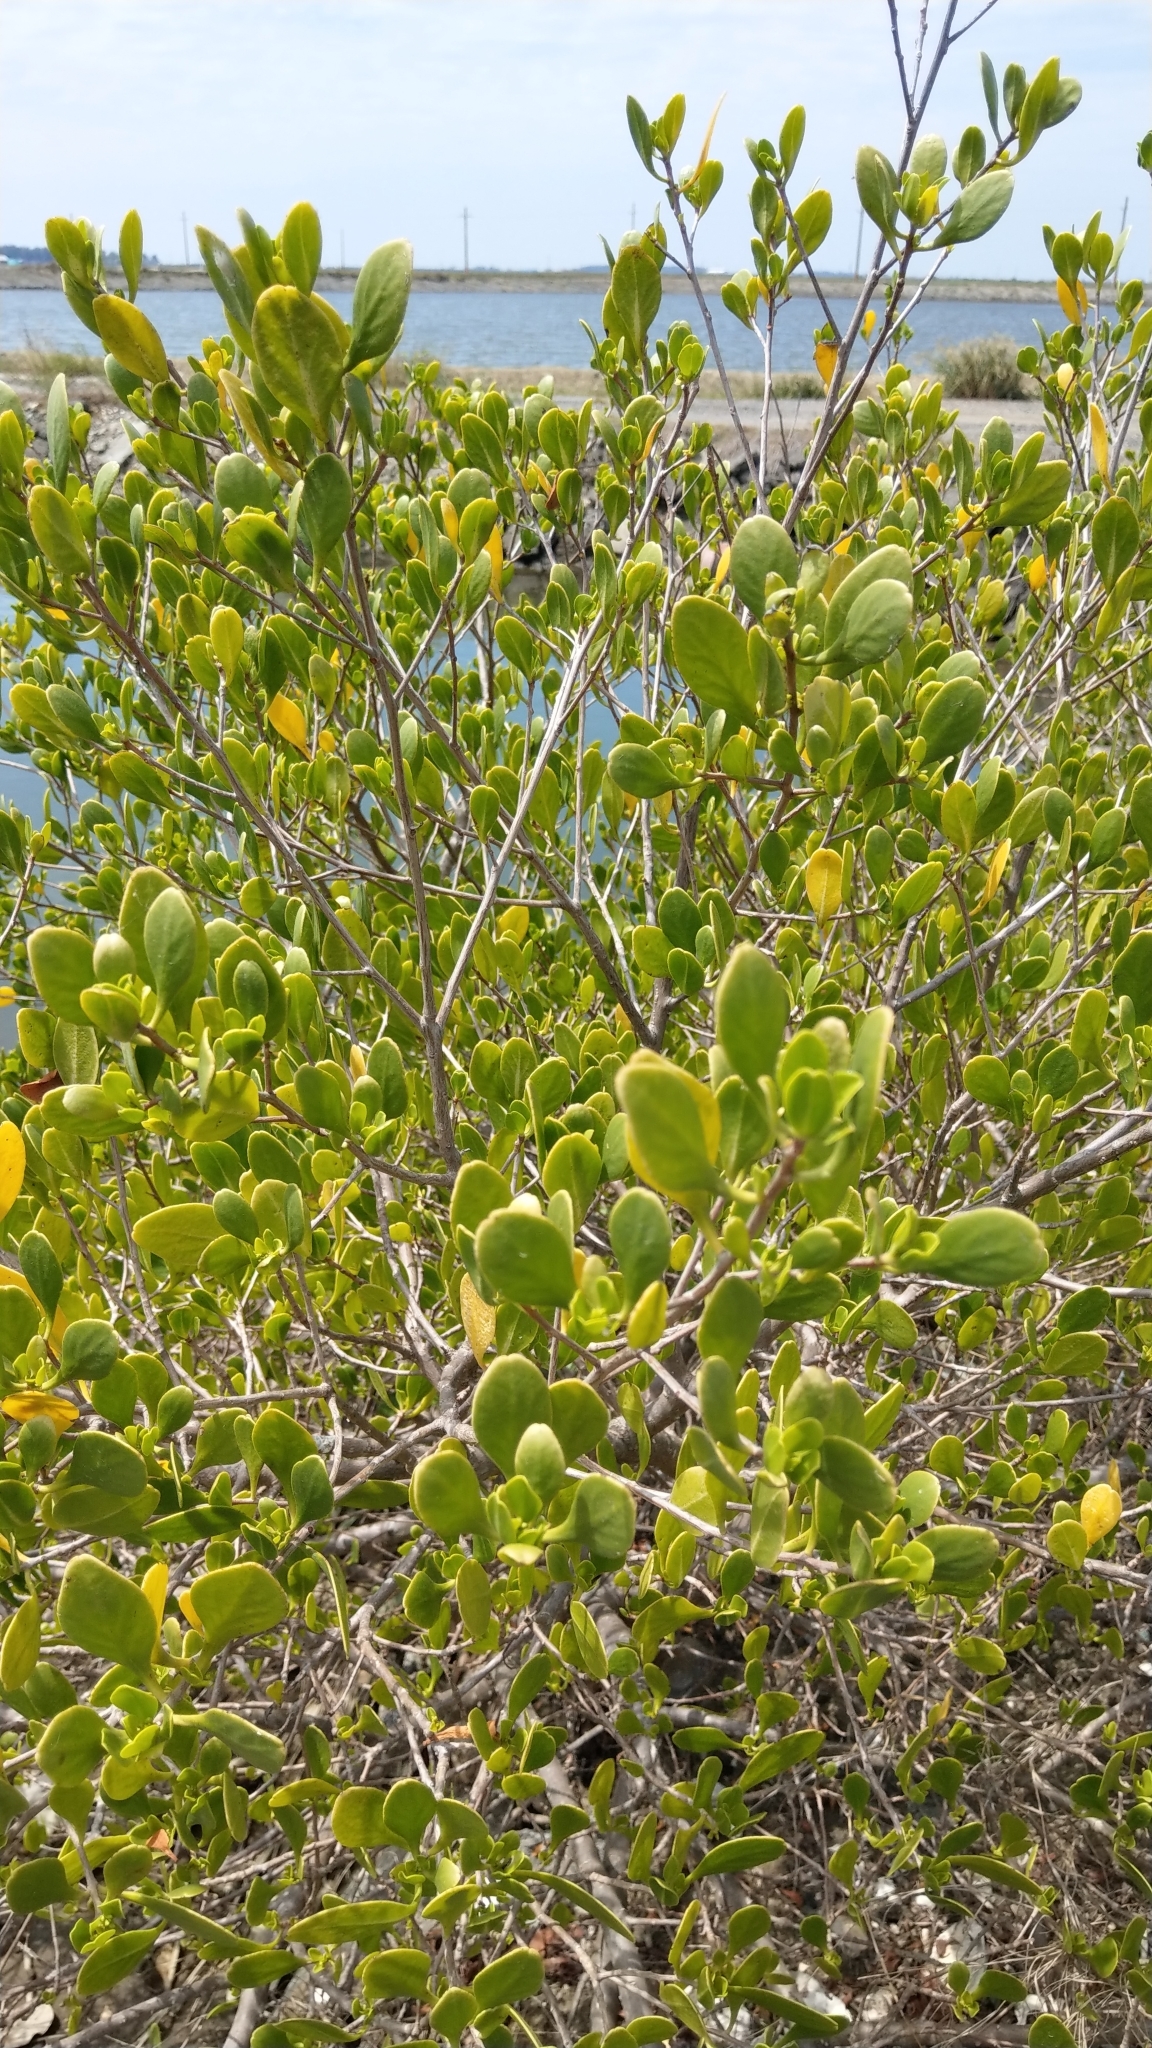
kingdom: Plantae
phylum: Tracheophyta
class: Magnoliopsida
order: Myrtales
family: Combretaceae
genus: Lumnitzera
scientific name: Lumnitzera racemosa
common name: White-flowered black mangrove
